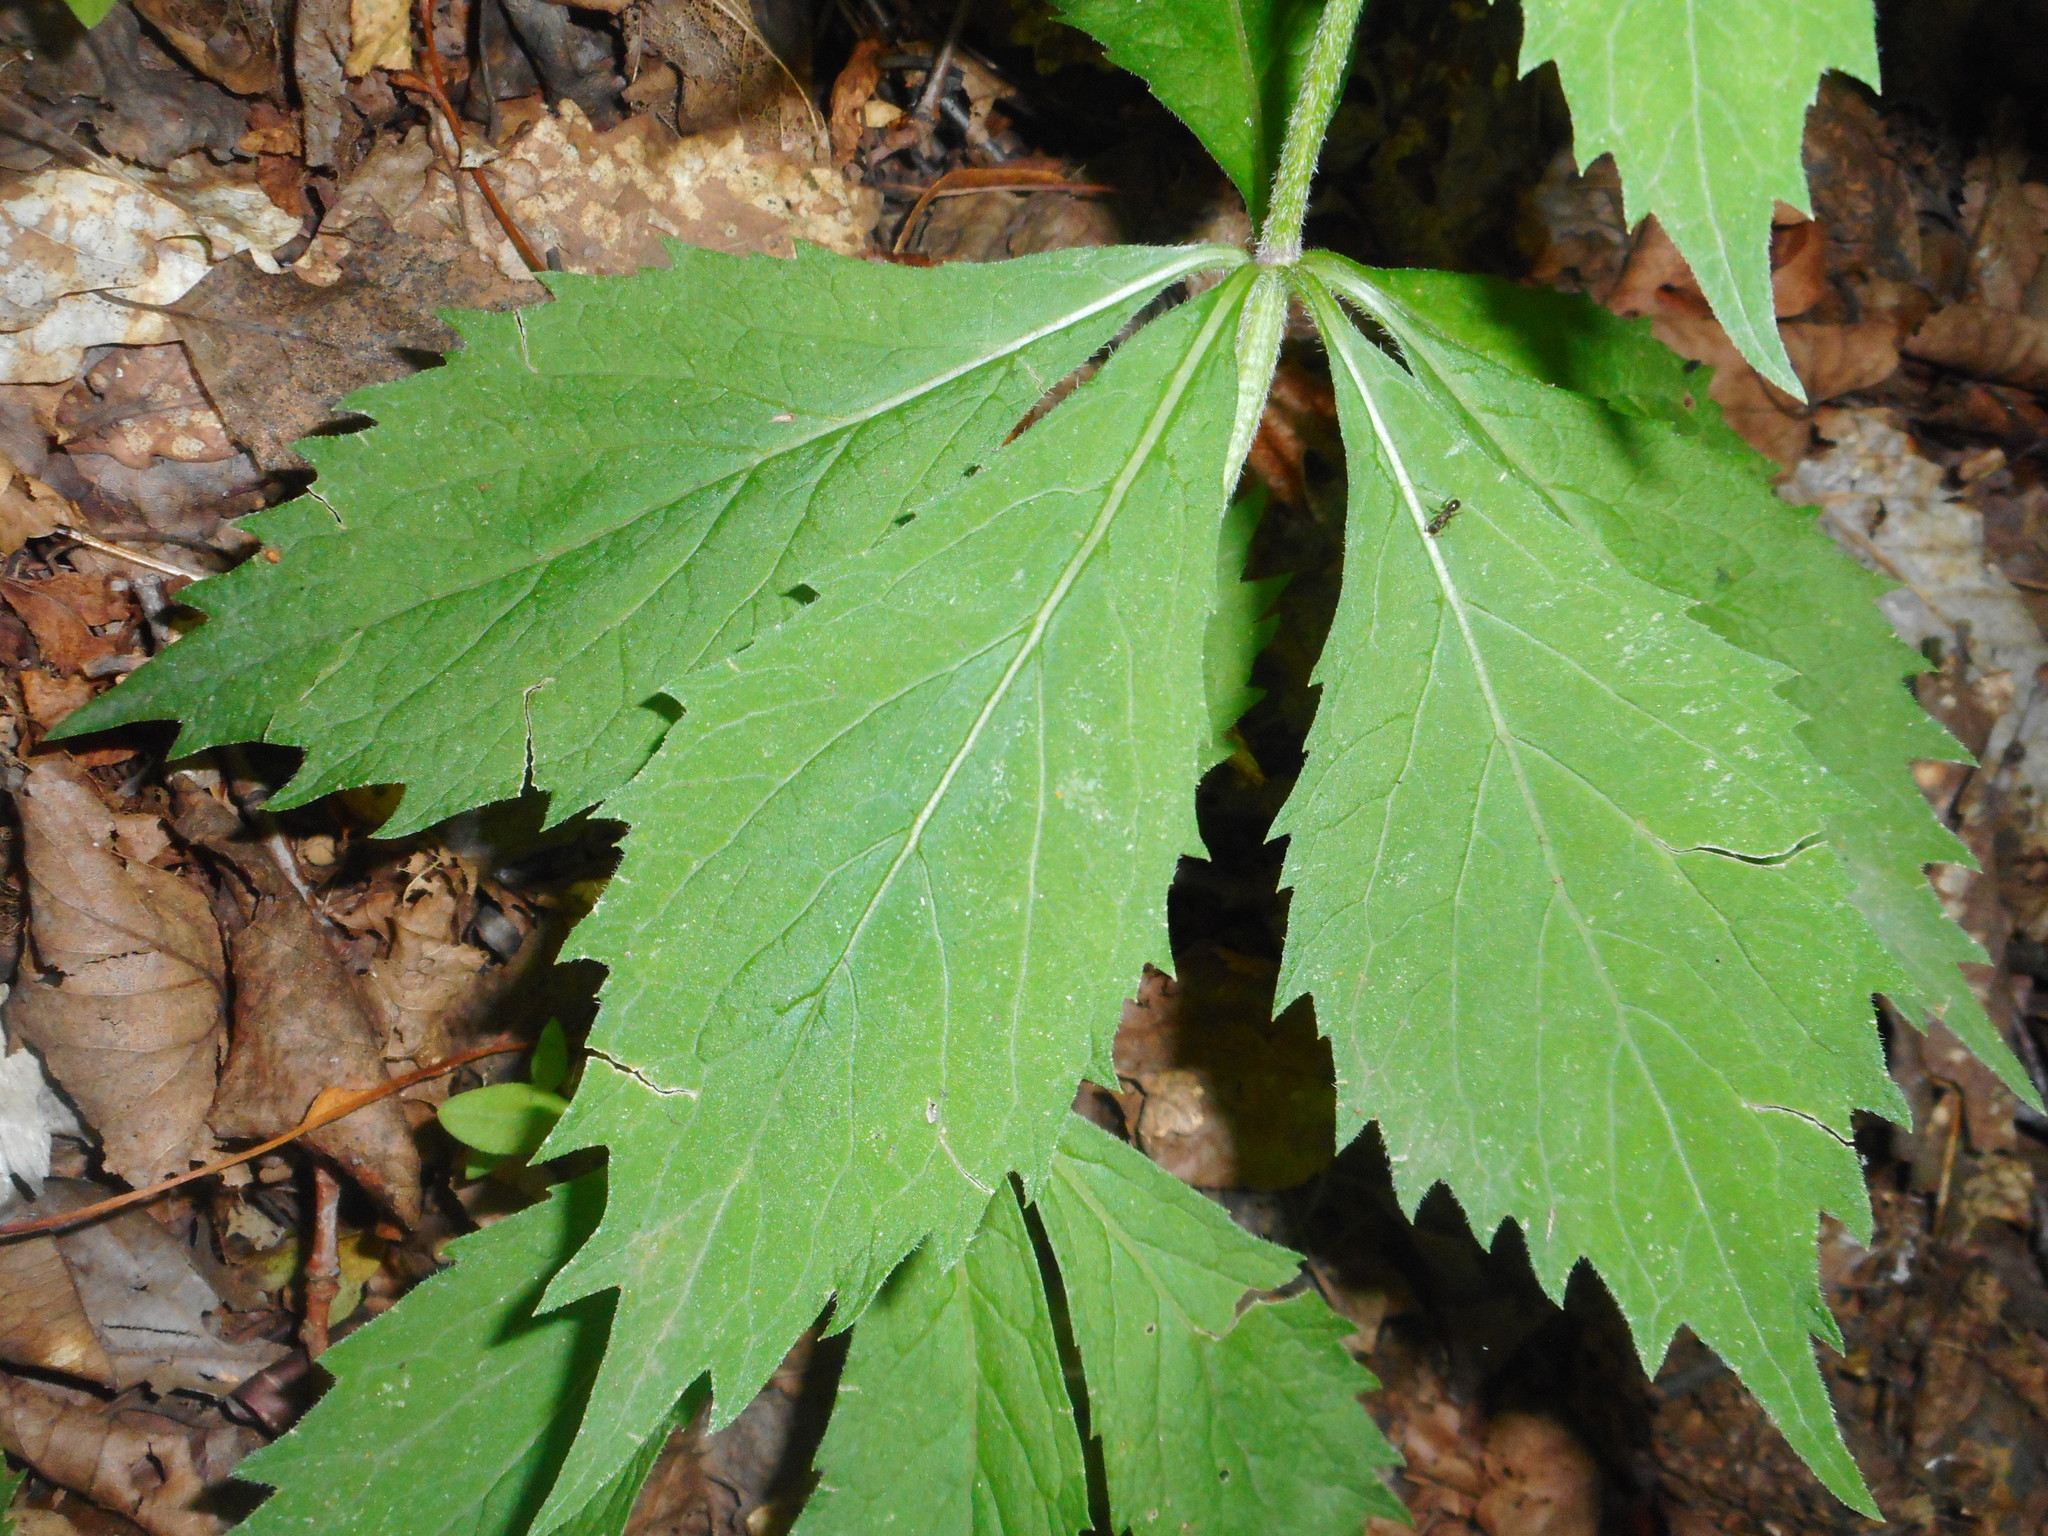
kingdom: Plantae
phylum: Tracheophyta
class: Magnoliopsida
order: Asterales
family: Campanulaceae
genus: Adenophora
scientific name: Adenophora pereskiifolia
